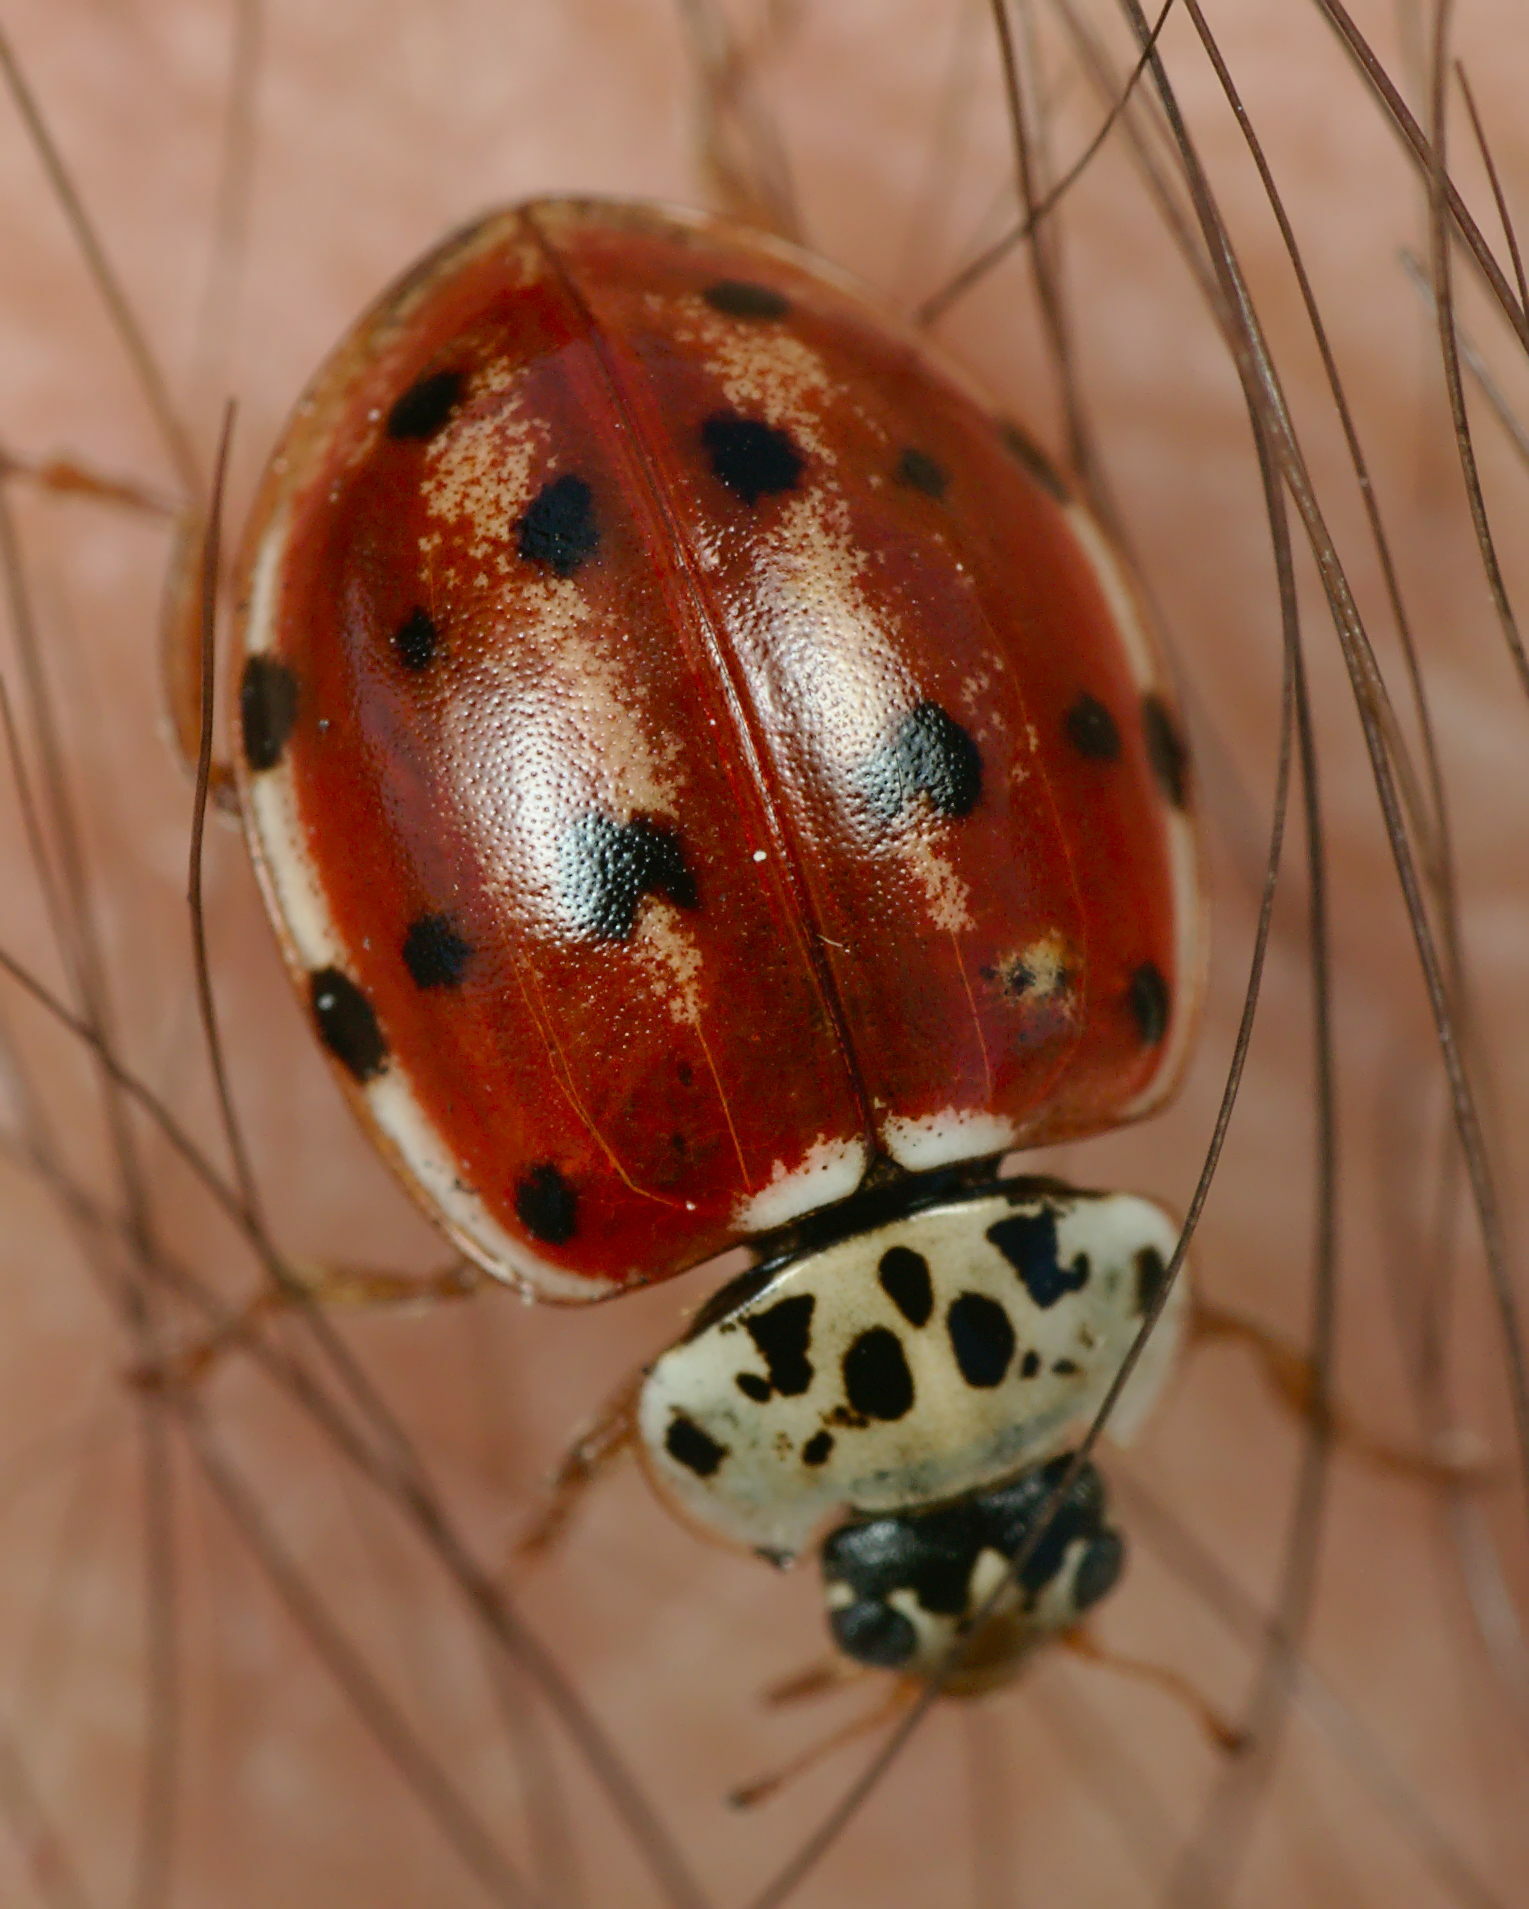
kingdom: Animalia
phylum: Arthropoda
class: Insecta
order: Coleoptera
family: Coccinellidae
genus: Harmonia
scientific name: Harmonia quadripunctata
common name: Cream-streaked ladybird
